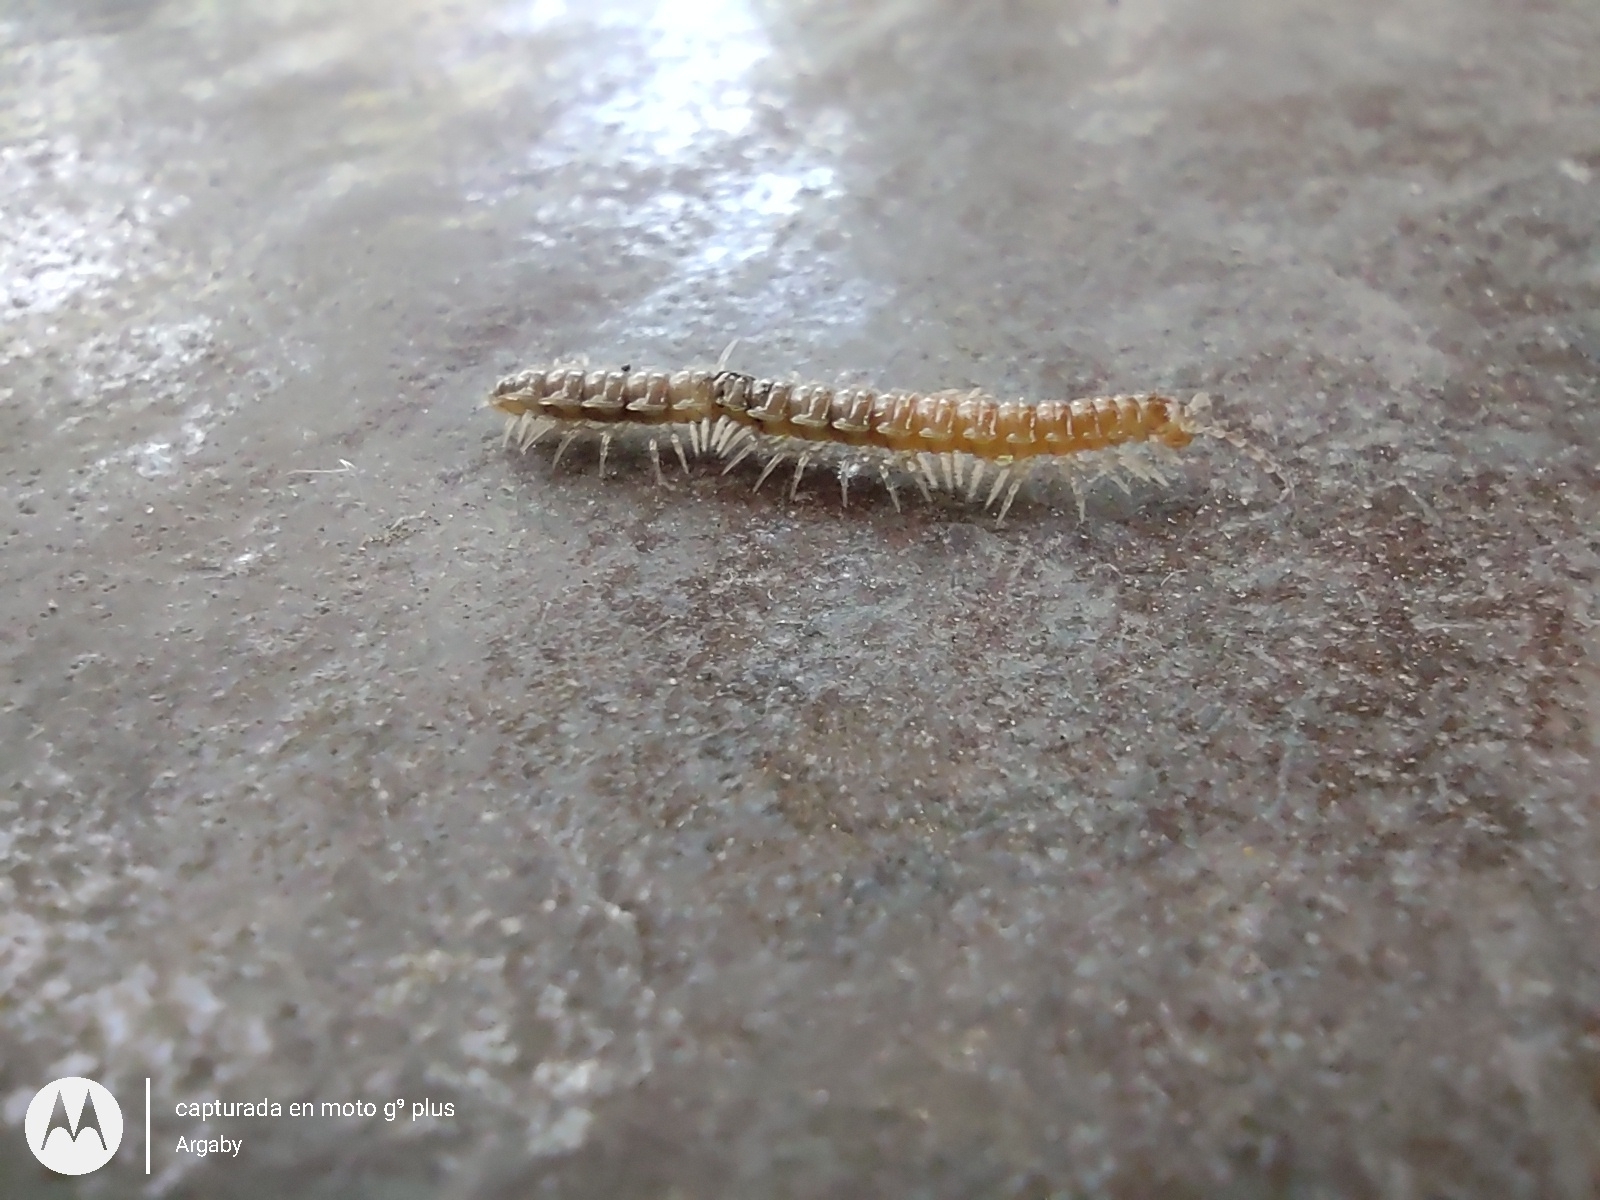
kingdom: Animalia
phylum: Arthropoda
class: Diplopoda
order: Polydesmida
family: Paradoxosomatidae
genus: Oxidus
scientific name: Oxidus gracilis
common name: Greenhouse millipede
